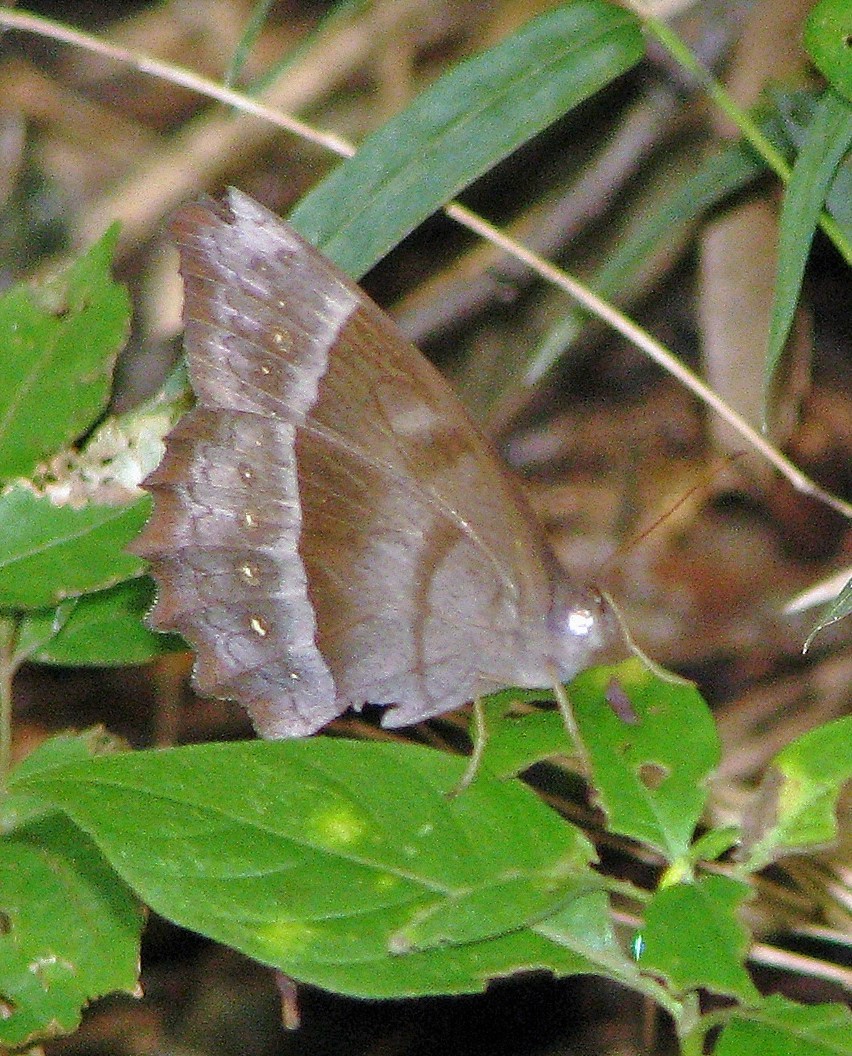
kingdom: Animalia
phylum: Arthropoda
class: Insecta
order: Lepidoptera
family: Nymphalidae
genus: Taygetis
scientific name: Taygetis thamyra
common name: Thamyra satyr
